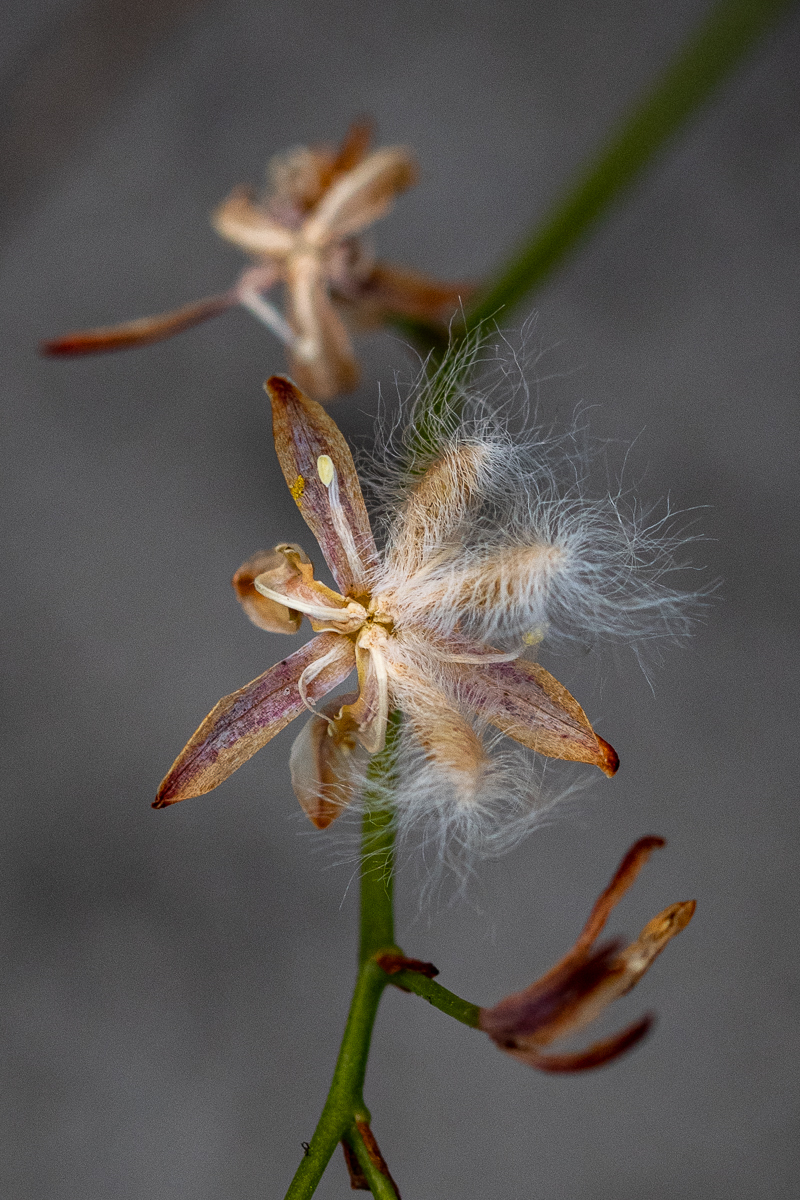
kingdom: Plantae
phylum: Tracheophyta
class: Liliopsida
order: Asparagales
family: Asparagaceae
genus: Eriospermum
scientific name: Eriospermum schlechteri
